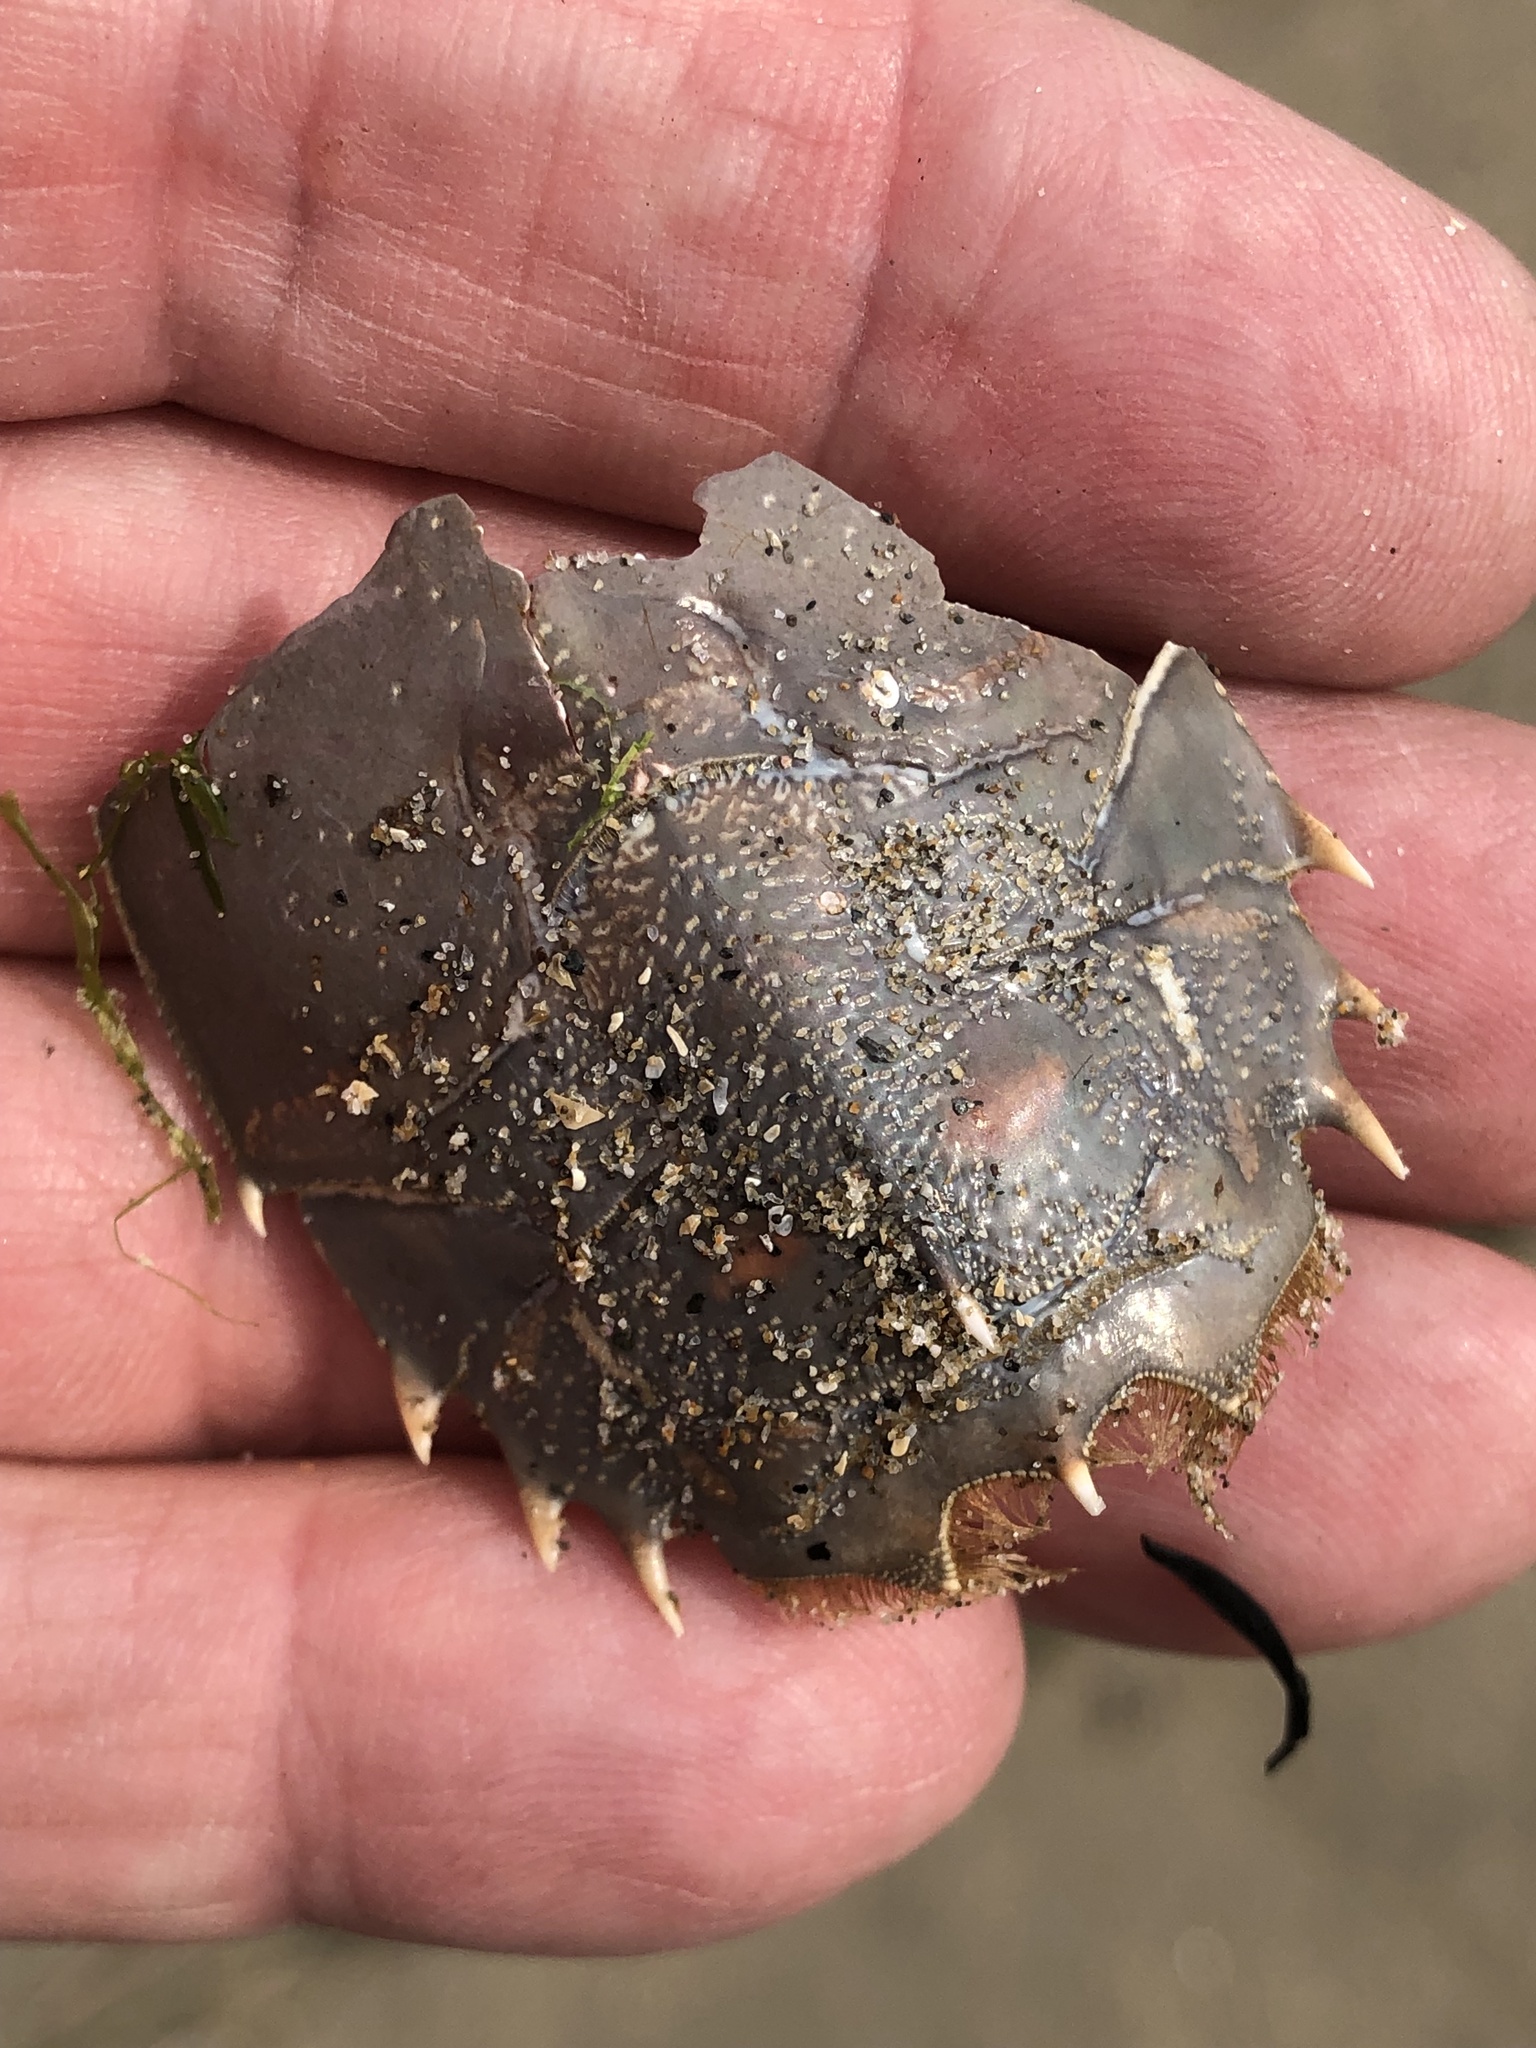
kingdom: Animalia
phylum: Arthropoda
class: Malacostraca
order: Decapoda
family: Blepharipodidae
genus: Blepharipoda
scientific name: Blepharipoda occidentalis
